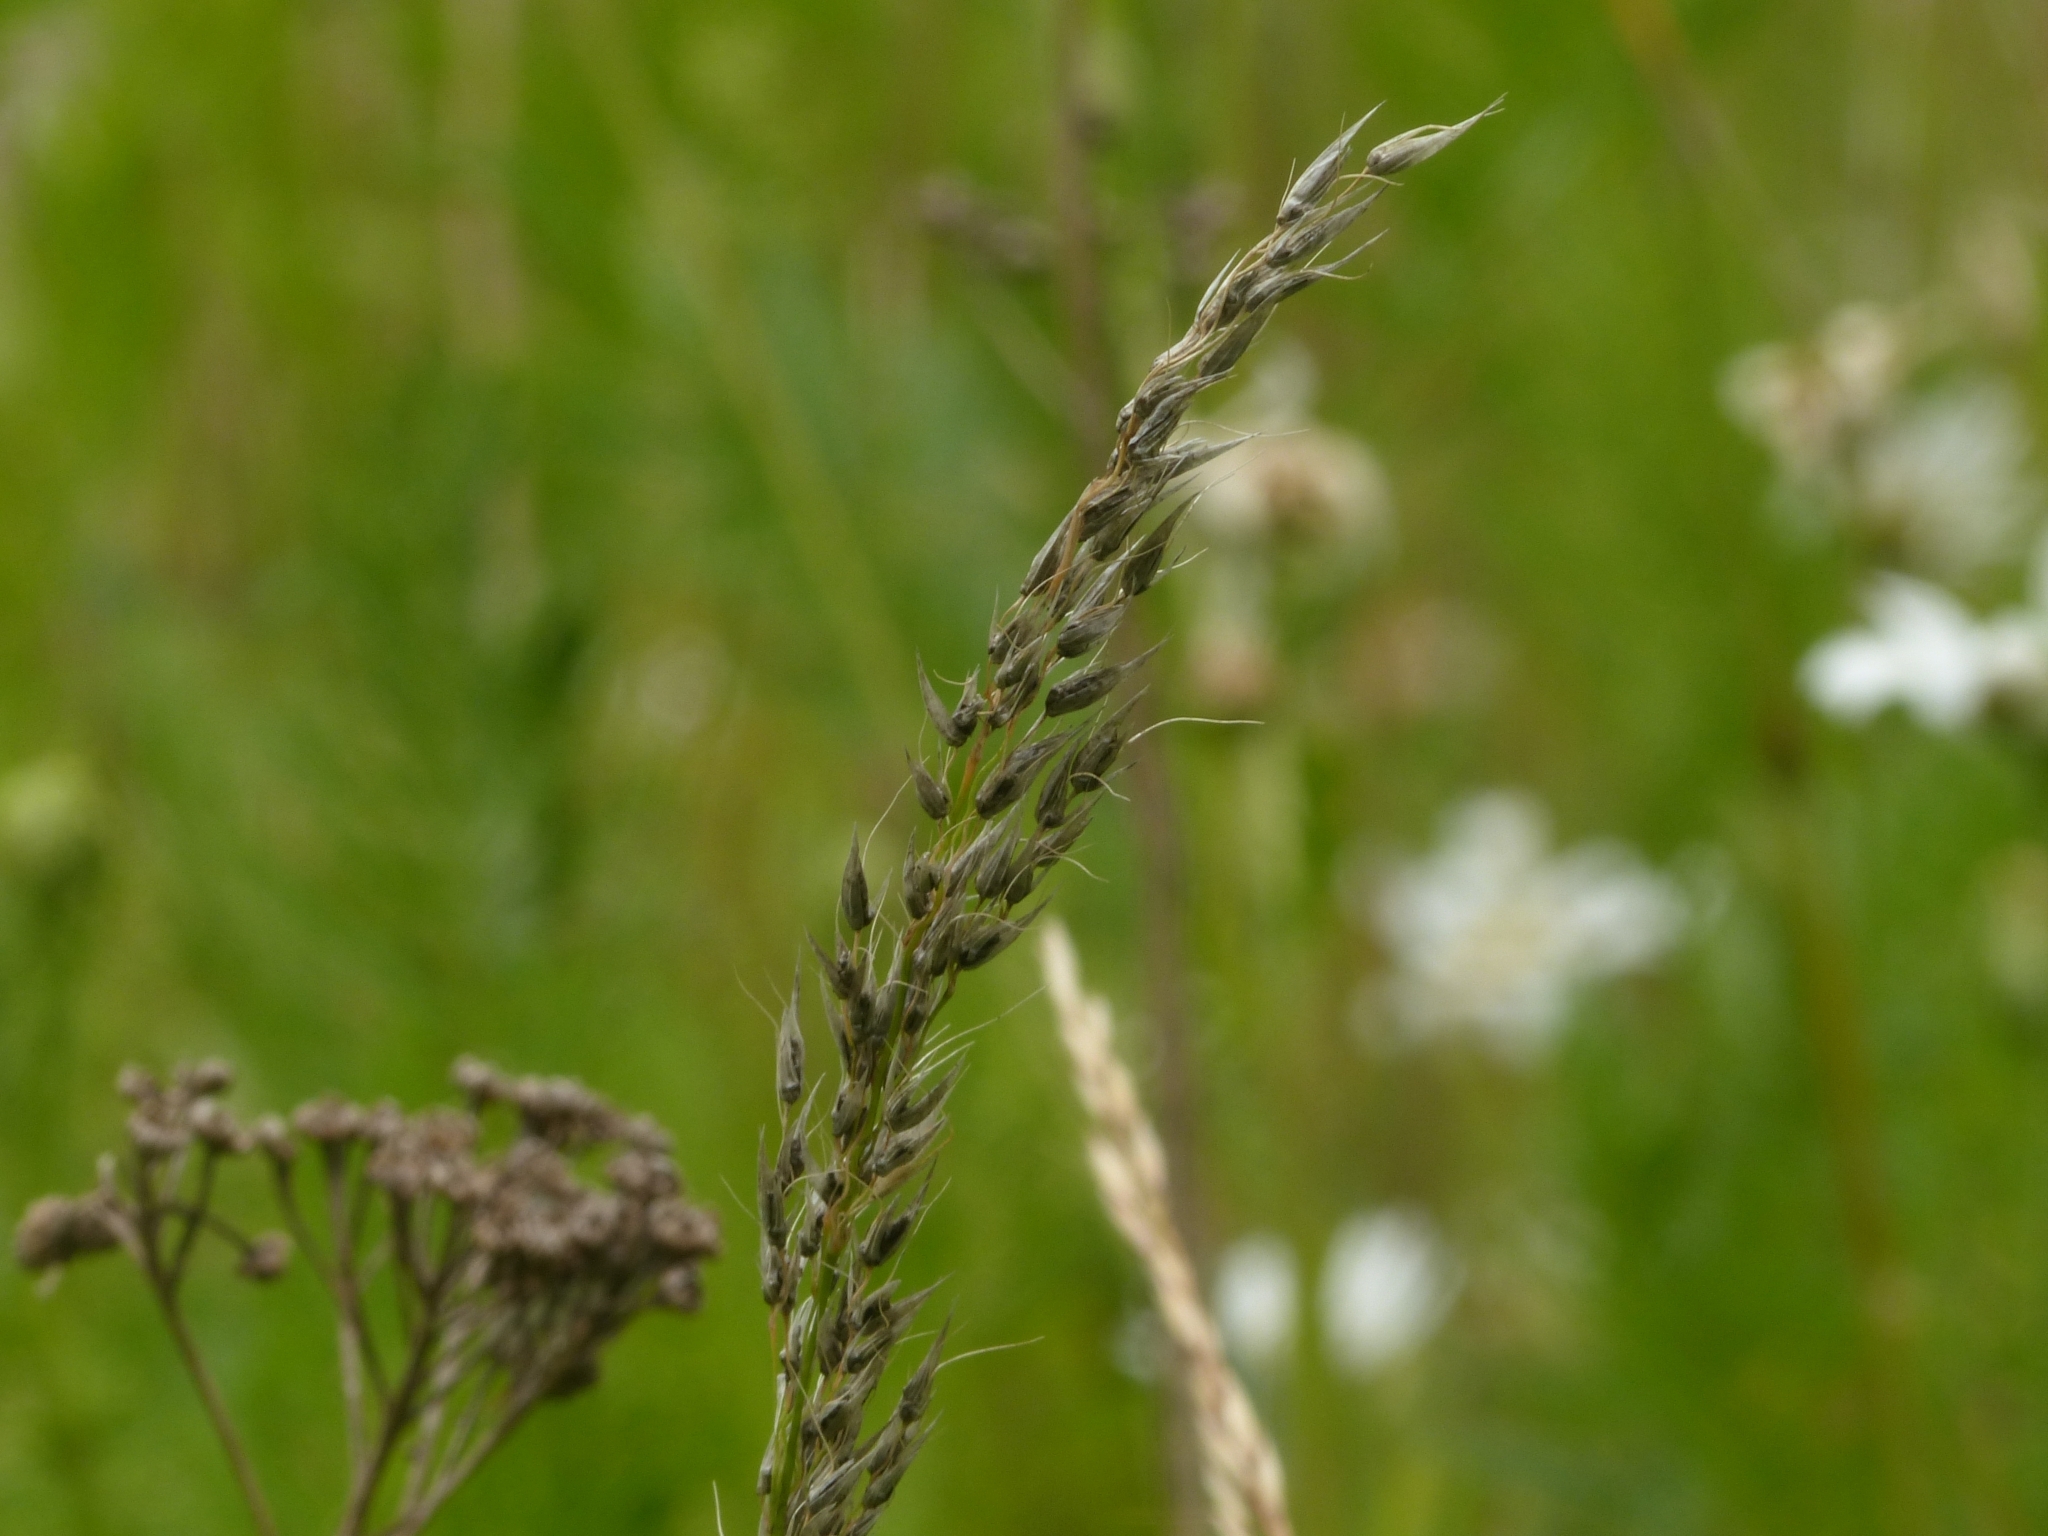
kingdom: Fungi
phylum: Basidiomycota
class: Ustilaginomycetes
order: Ustilaginales
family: Ustilaginaceae
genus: Ustilago
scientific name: Ustilago avenae
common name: Loose smut of oats & oat grass
